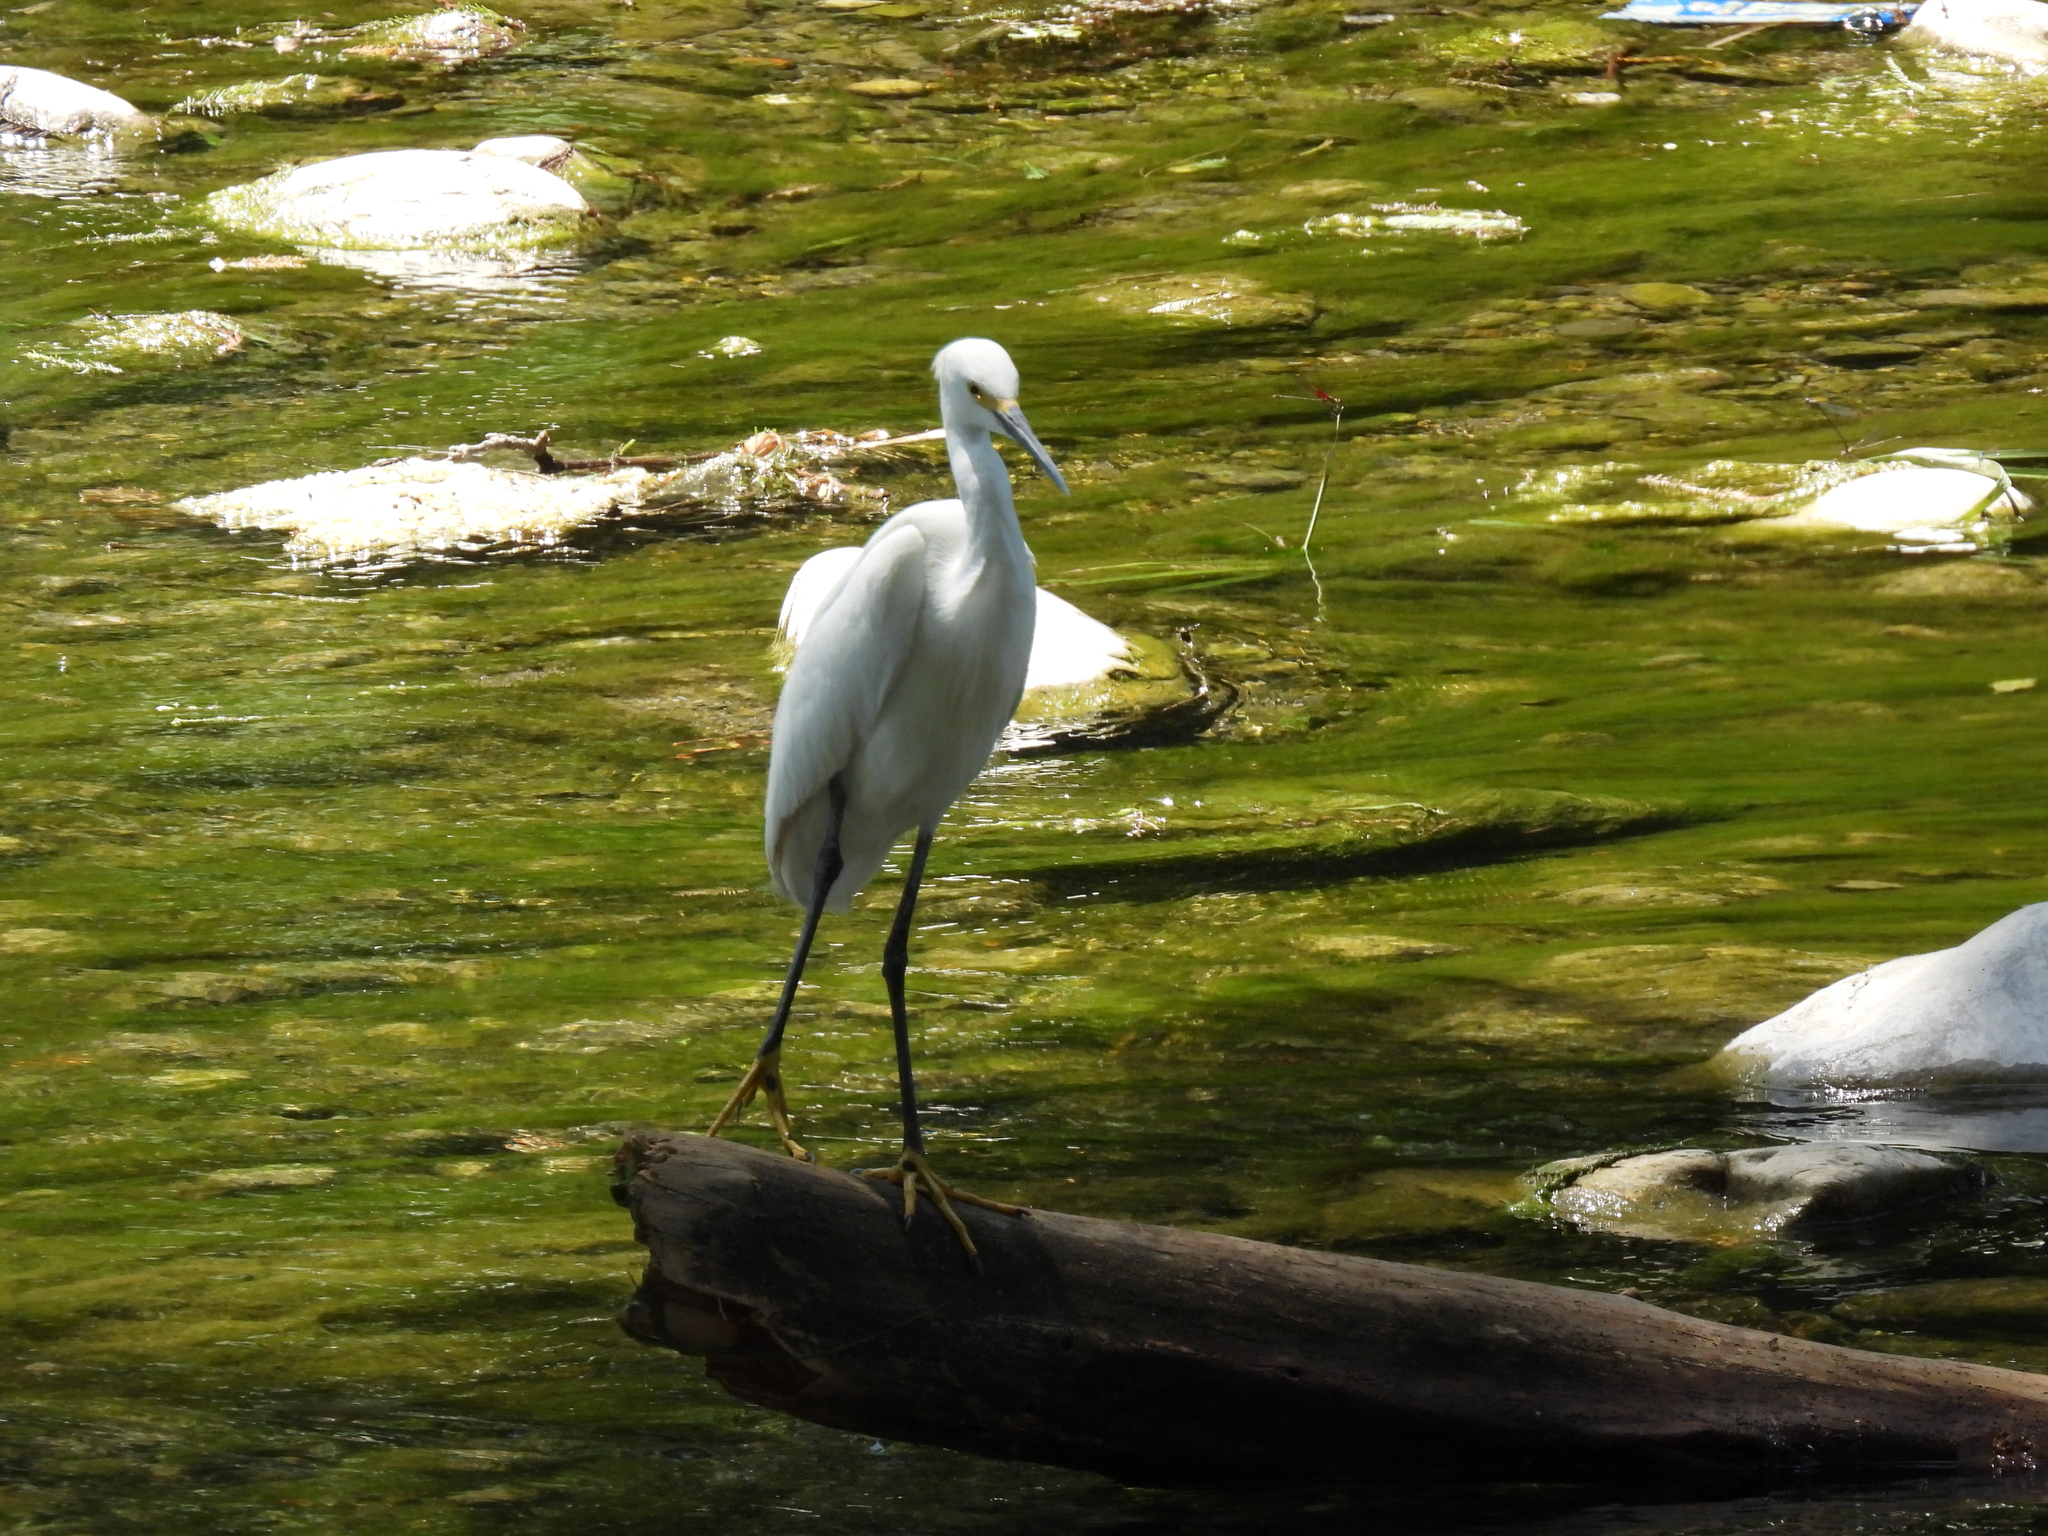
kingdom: Animalia
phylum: Chordata
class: Aves
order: Pelecaniformes
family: Ardeidae
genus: Egretta
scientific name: Egretta thula
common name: Snowy egret
